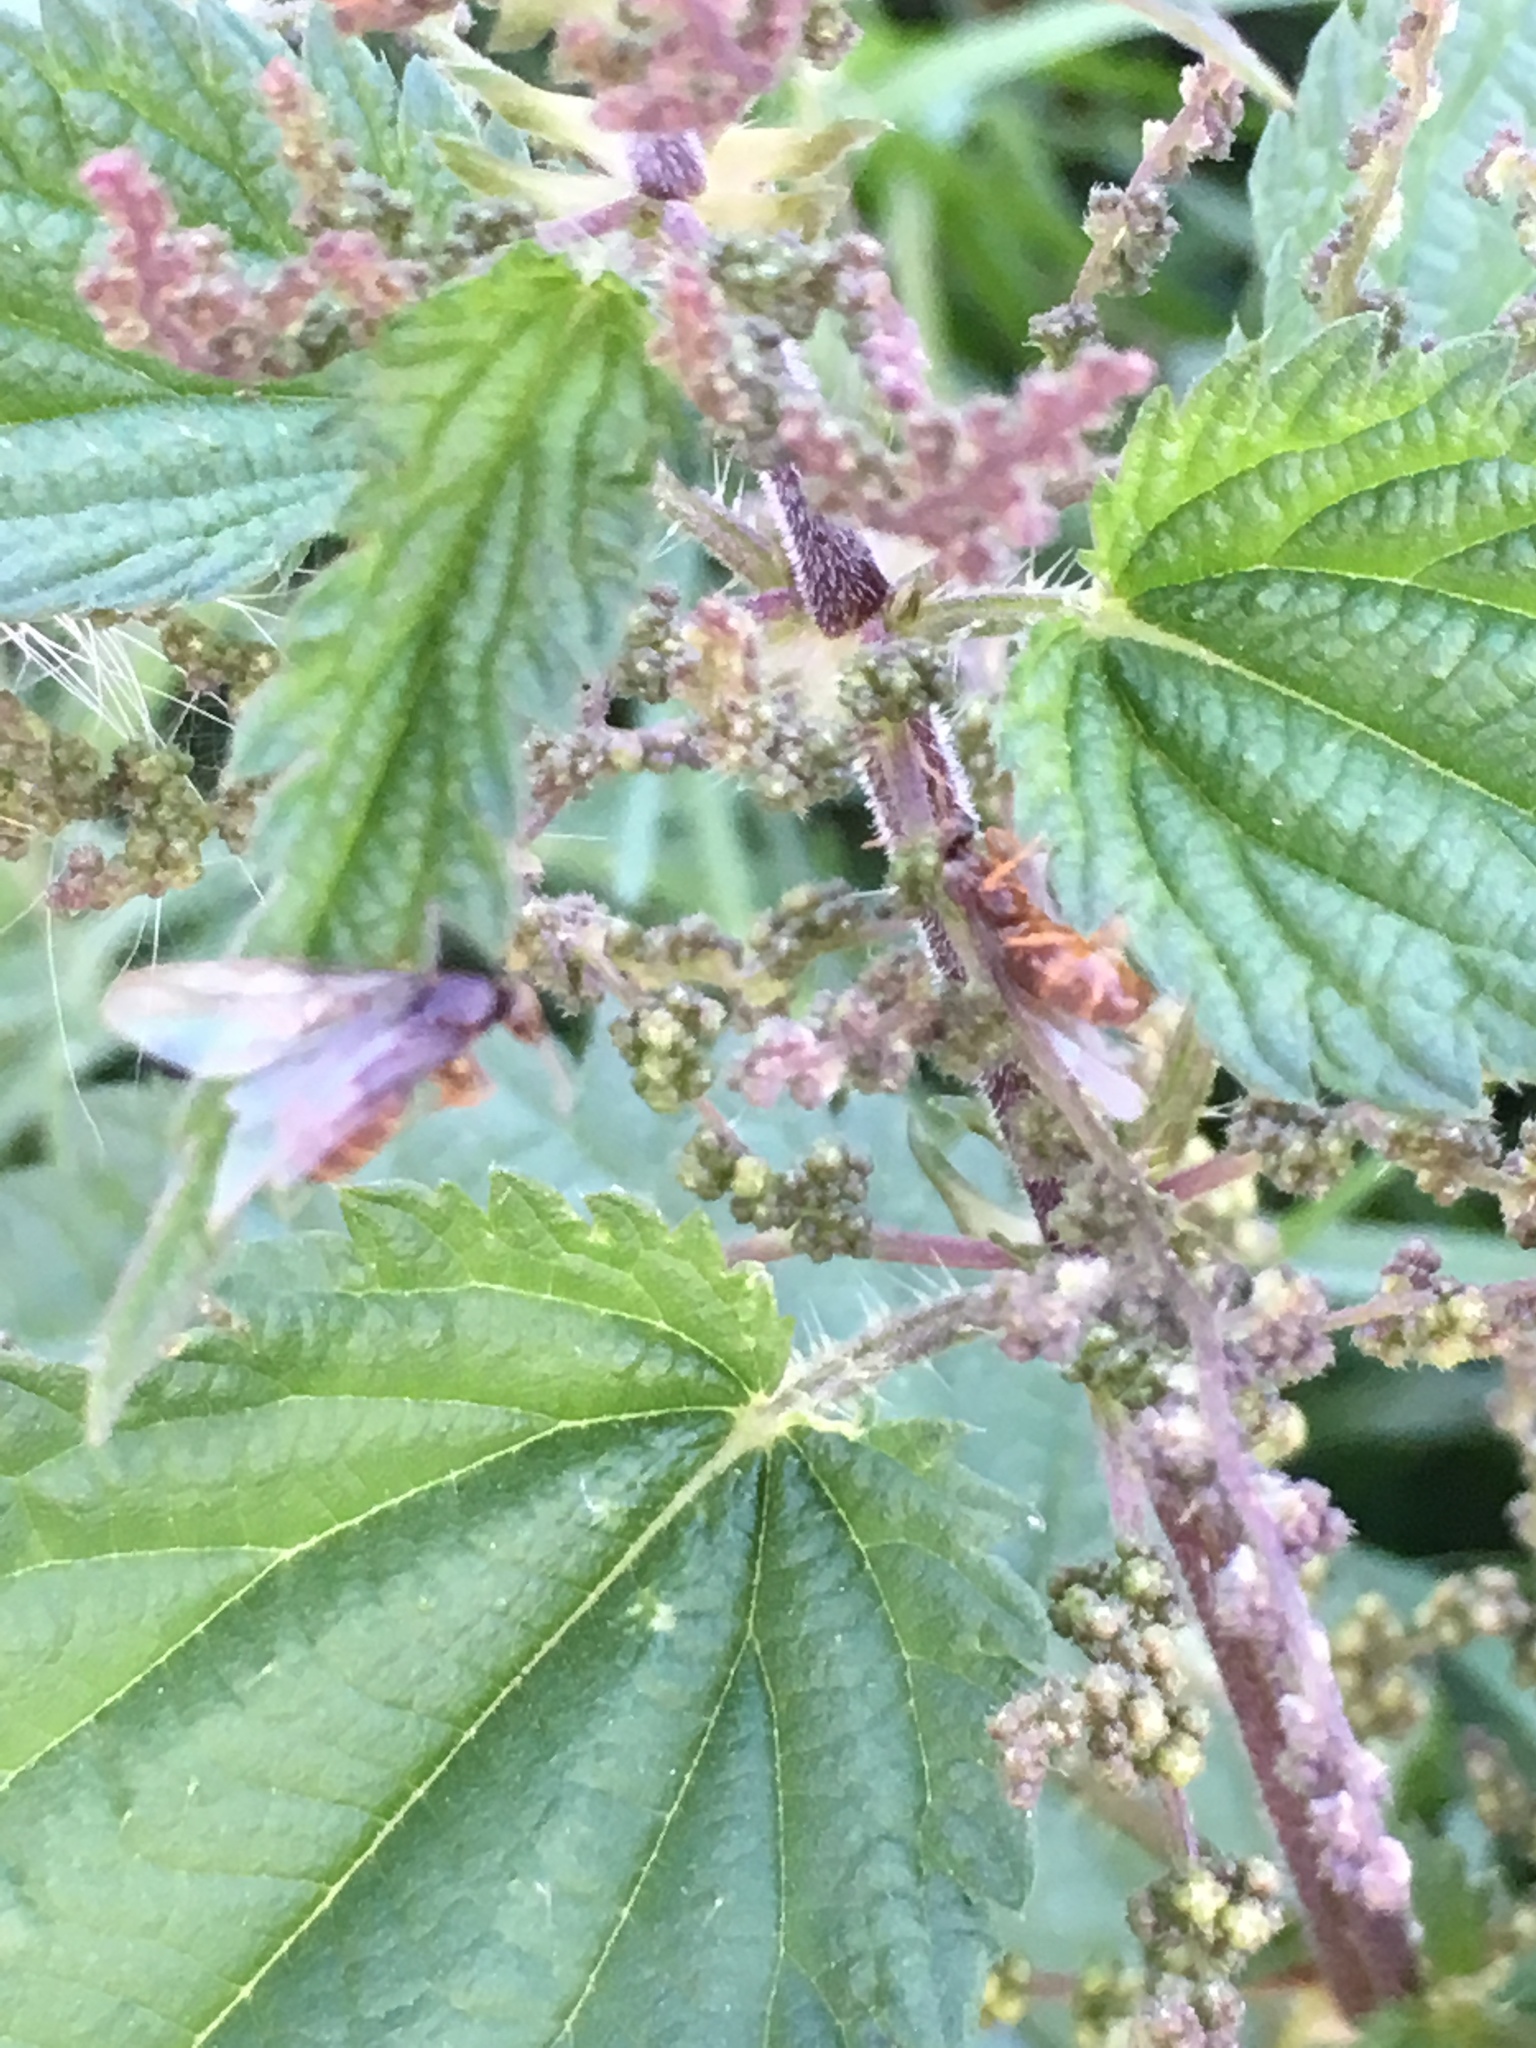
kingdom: Animalia
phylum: Arthropoda
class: Insecta
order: Hymenoptera
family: Formicidae
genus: Lasius
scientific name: Lasius
